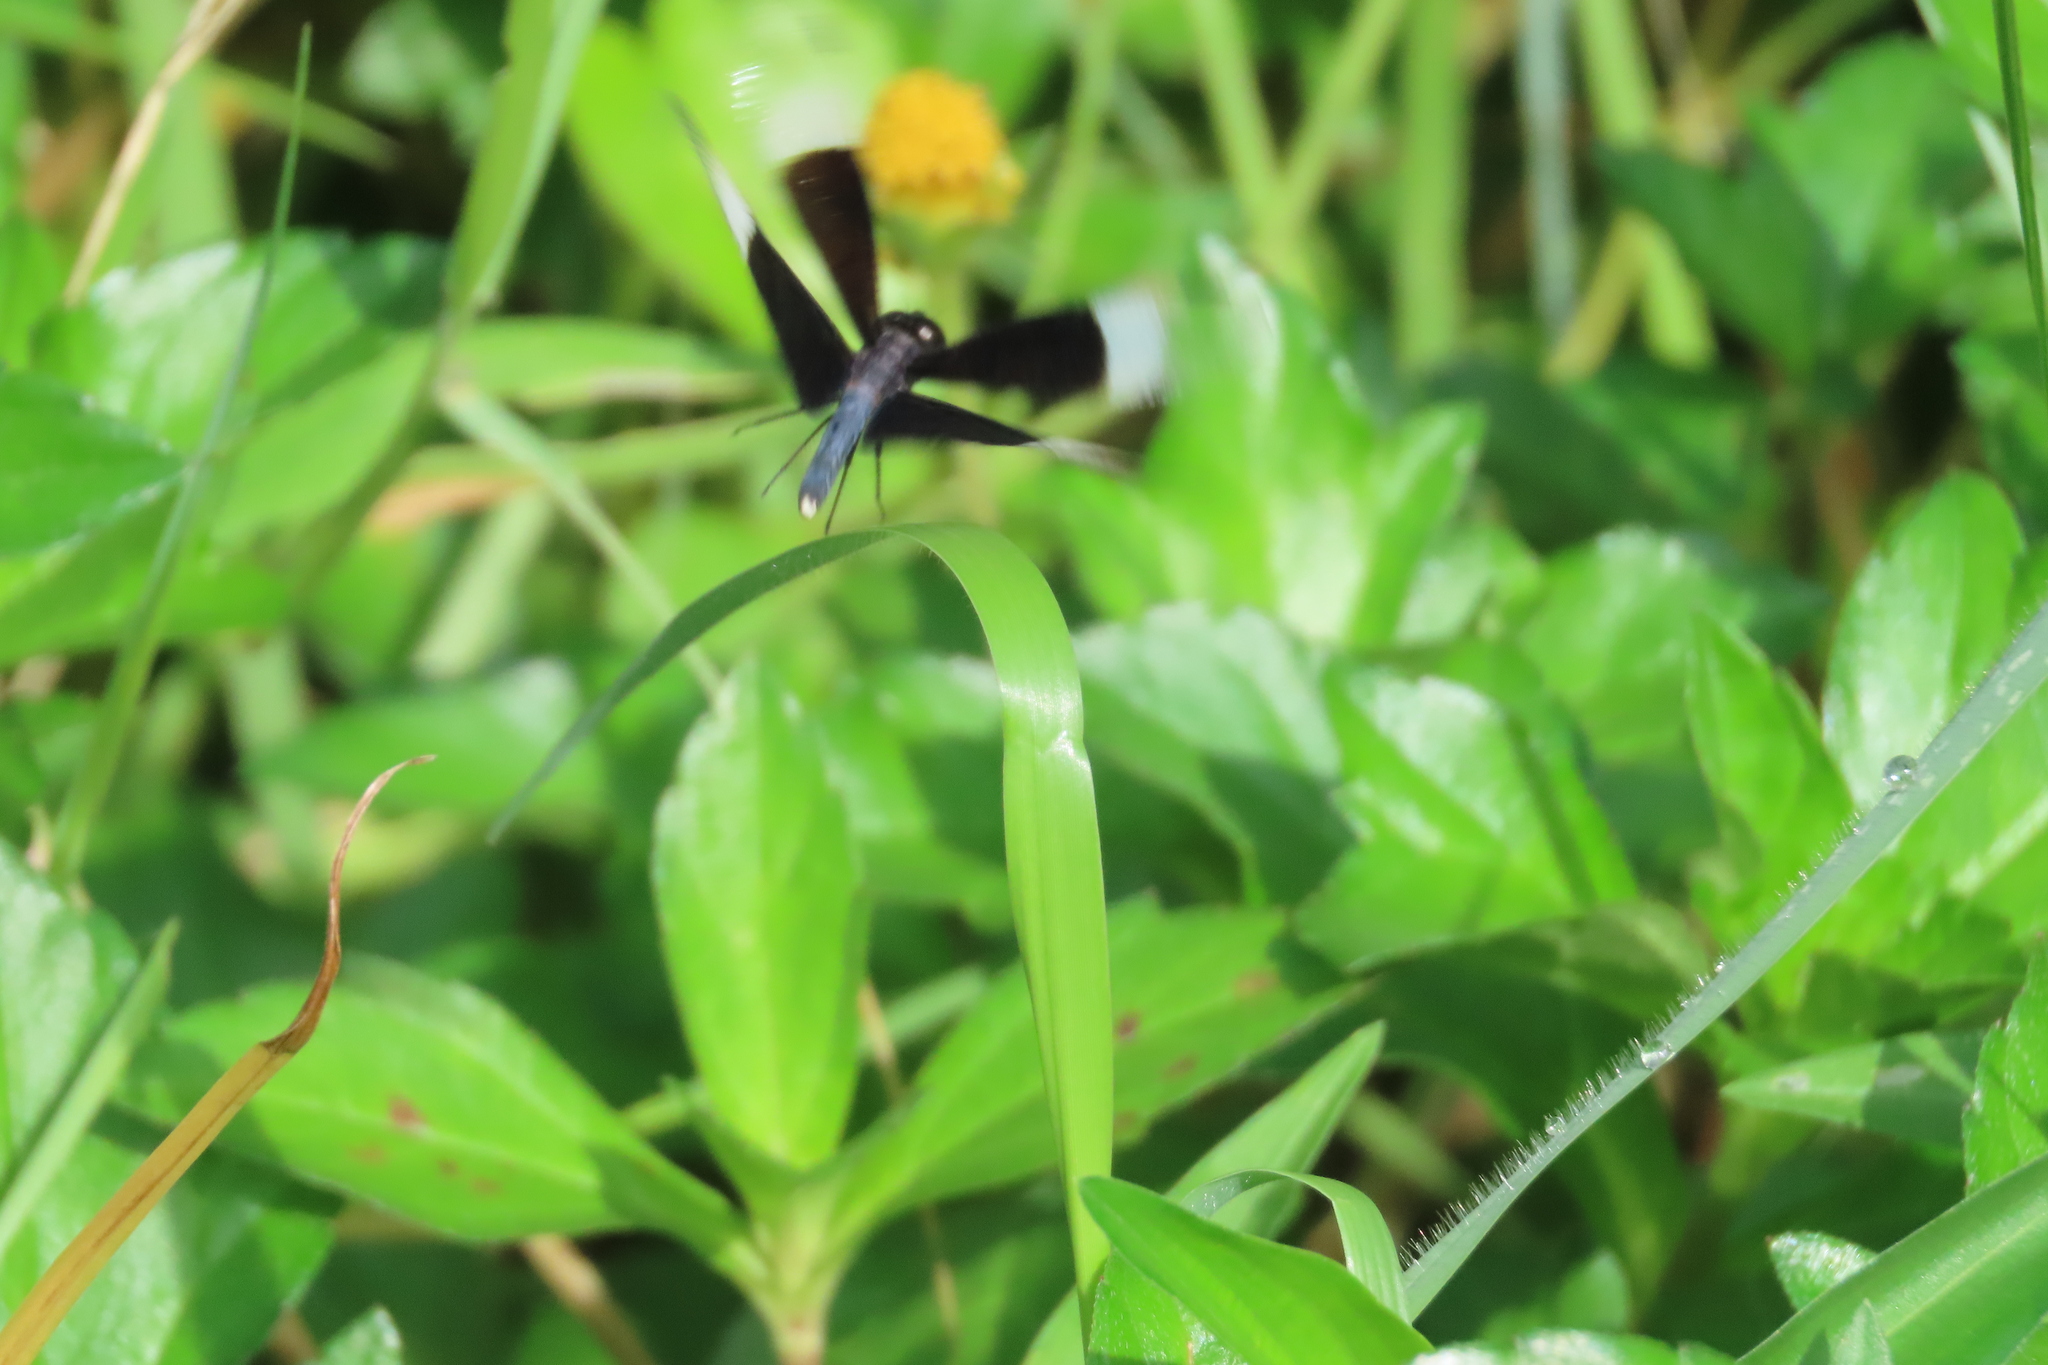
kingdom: Animalia
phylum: Arthropoda
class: Insecta
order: Odonata
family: Libellulidae
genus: Neurothemis
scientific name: Neurothemis tullia
